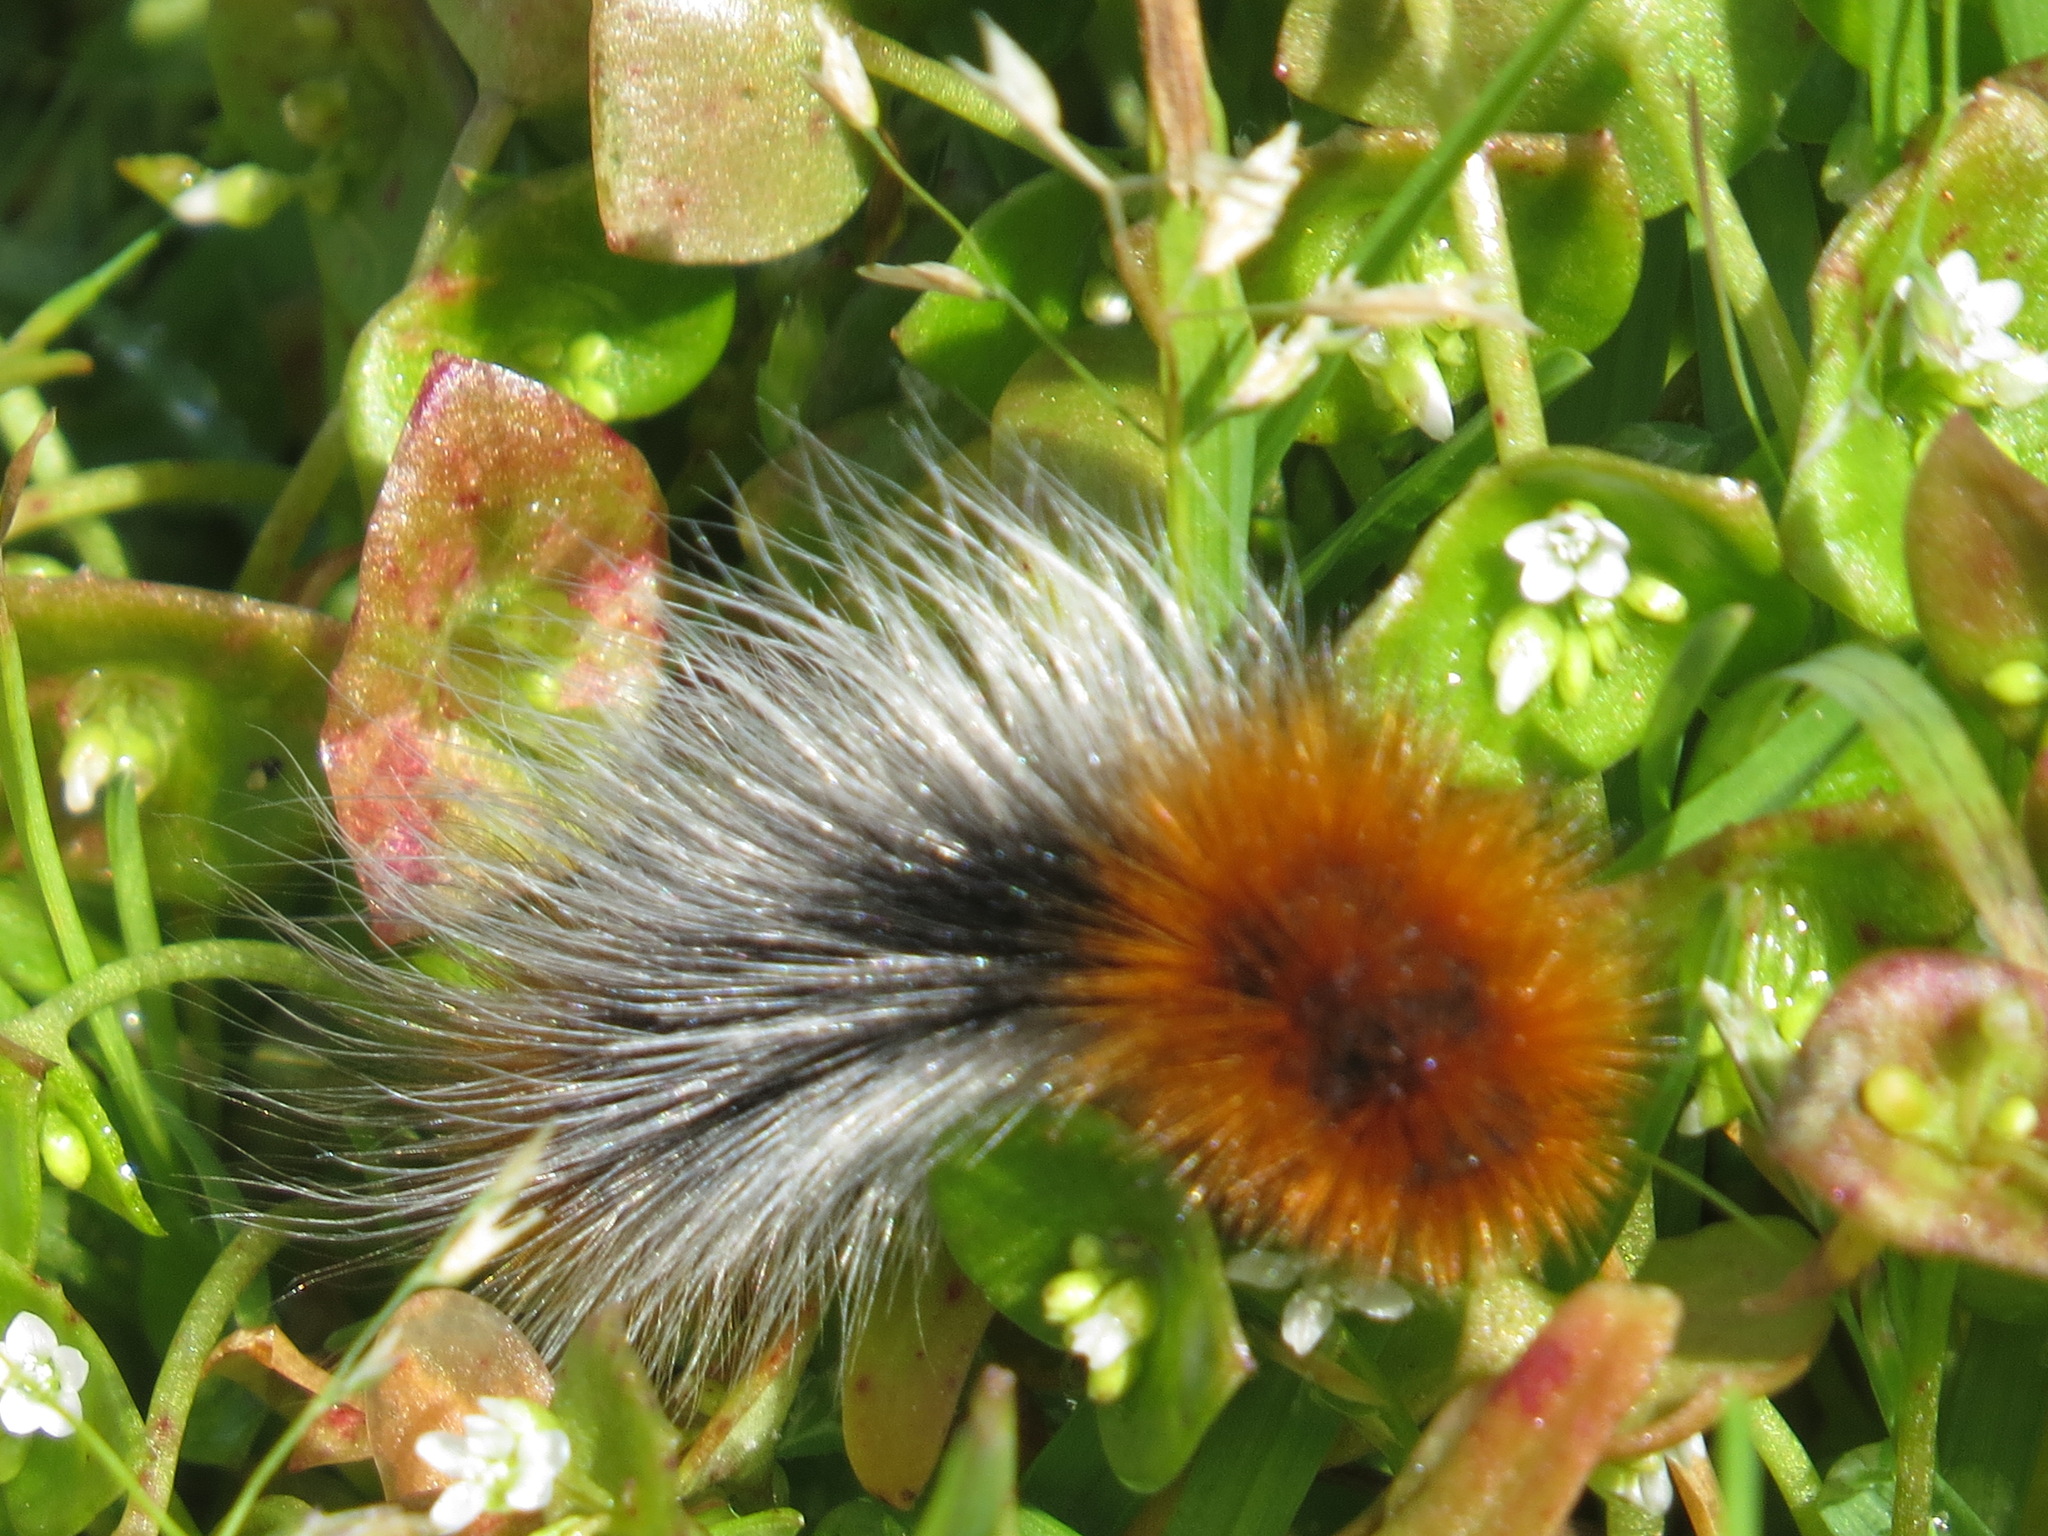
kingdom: Animalia
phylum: Arthropoda
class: Insecta
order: Lepidoptera
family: Erebidae
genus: Arctia
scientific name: Arctia tigrina
